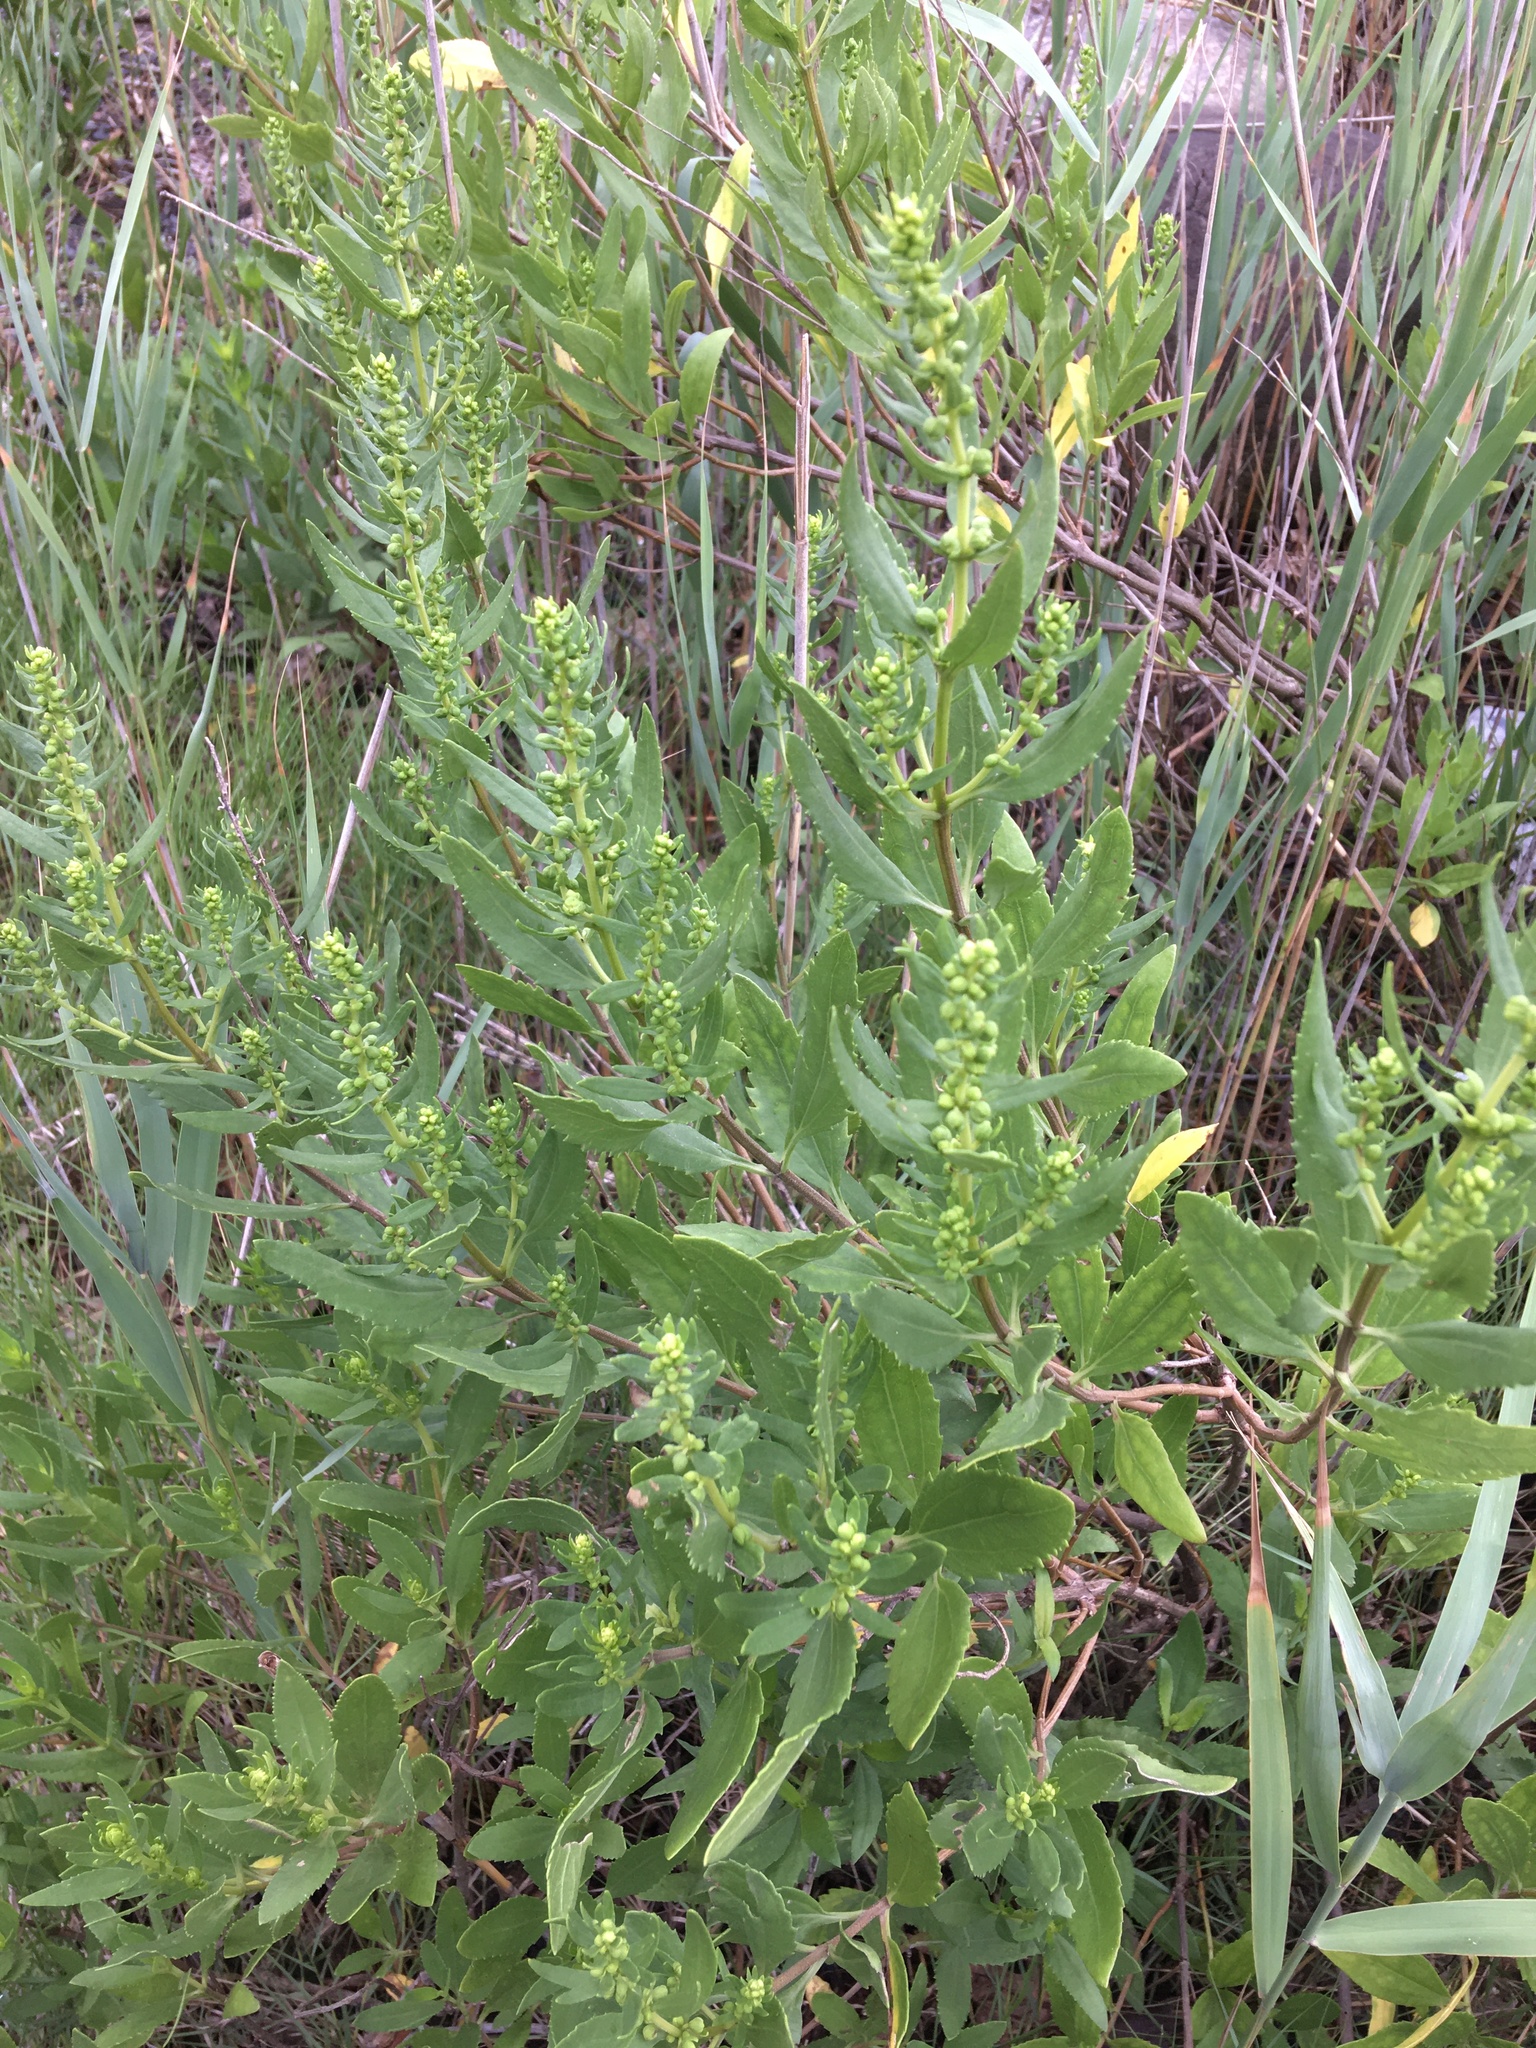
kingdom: Plantae
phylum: Tracheophyta
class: Magnoliopsida
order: Asterales
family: Asteraceae
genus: Iva
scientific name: Iva frutescens
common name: Big-leaved marsh-elder
